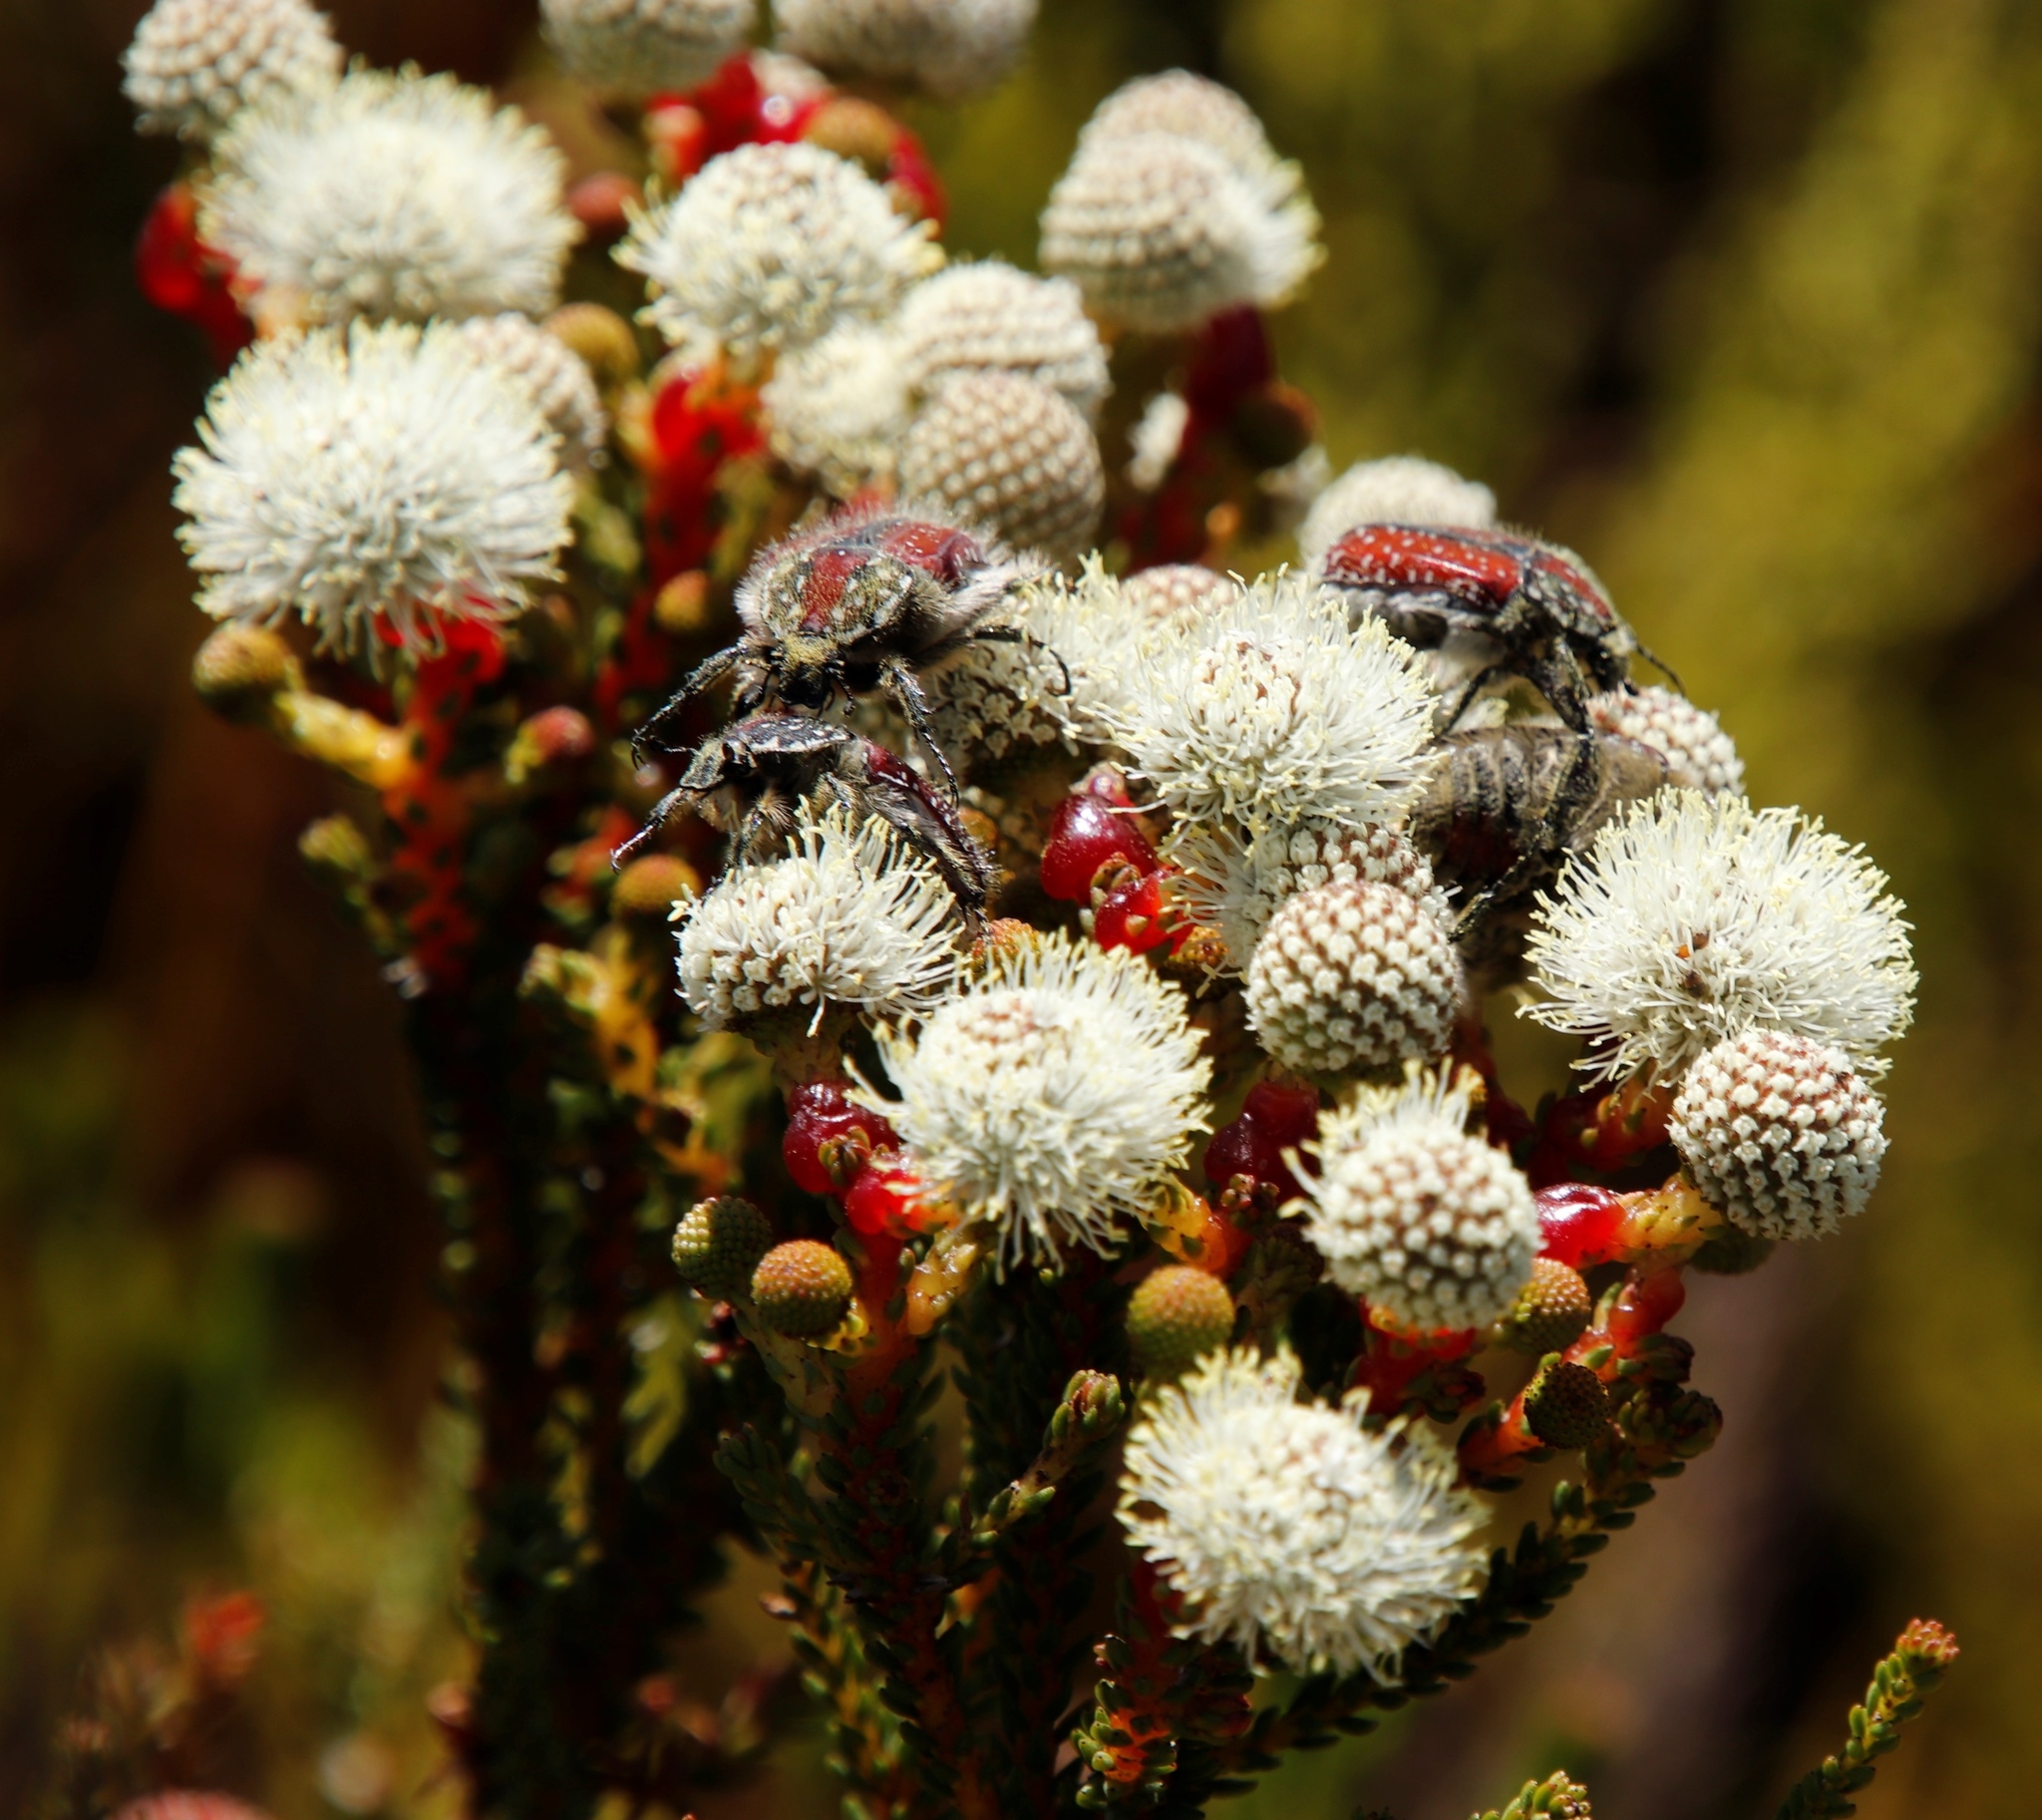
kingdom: Animalia
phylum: Arthropoda
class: Insecta
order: Coleoptera
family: Scarabaeidae
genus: Trichostetha
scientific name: Trichostetha capensis
